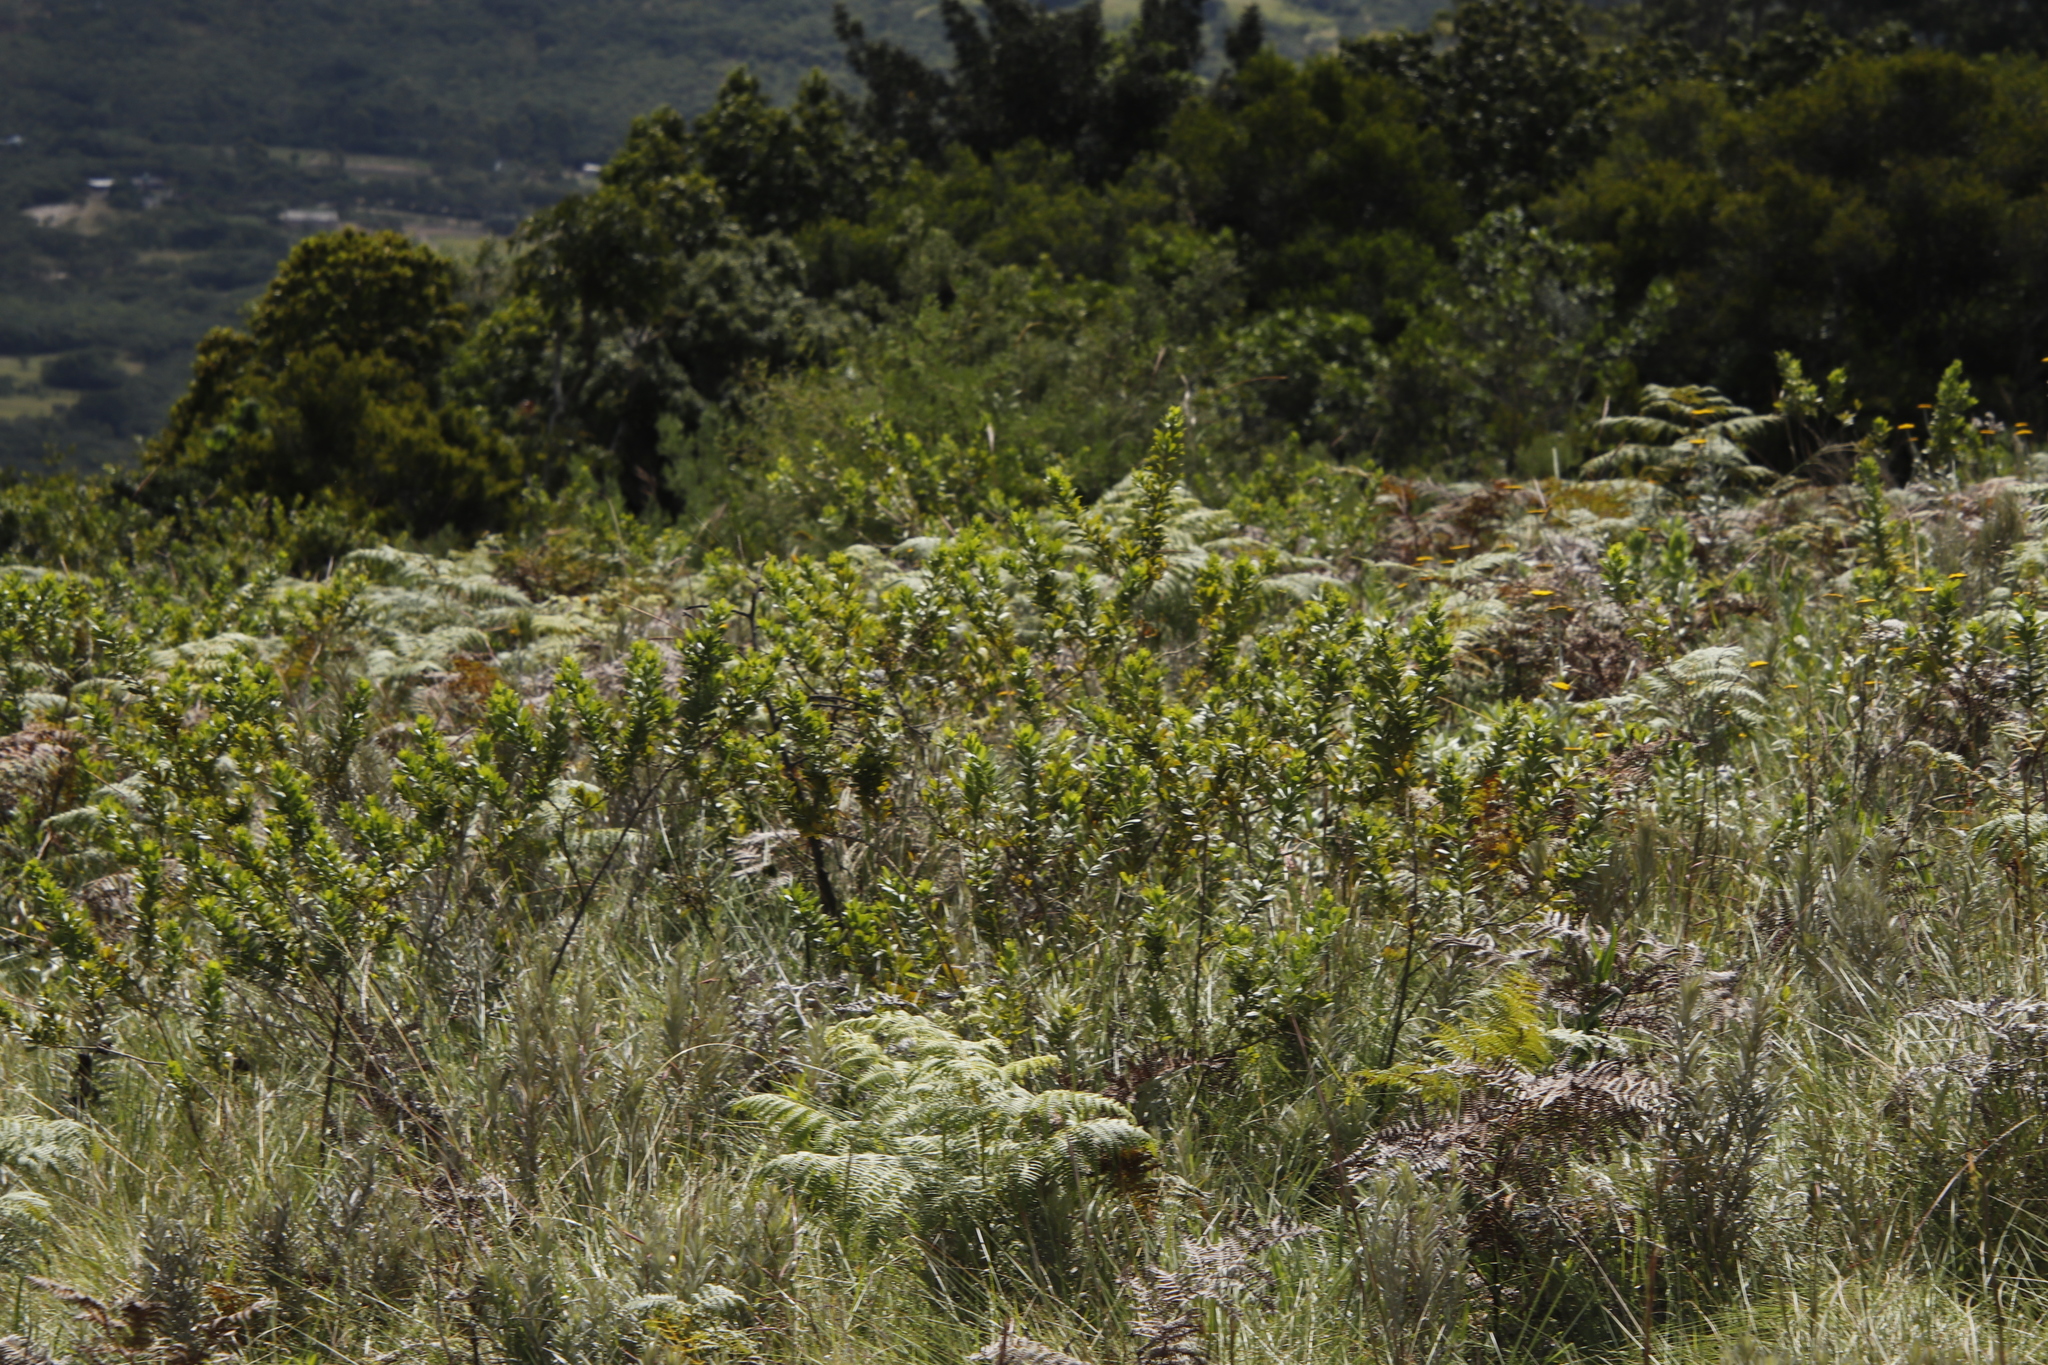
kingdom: Plantae
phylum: Tracheophyta
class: Magnoliopsida
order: Fabales
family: Fabaceae
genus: Psoralea
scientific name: Psoralea foliosa
